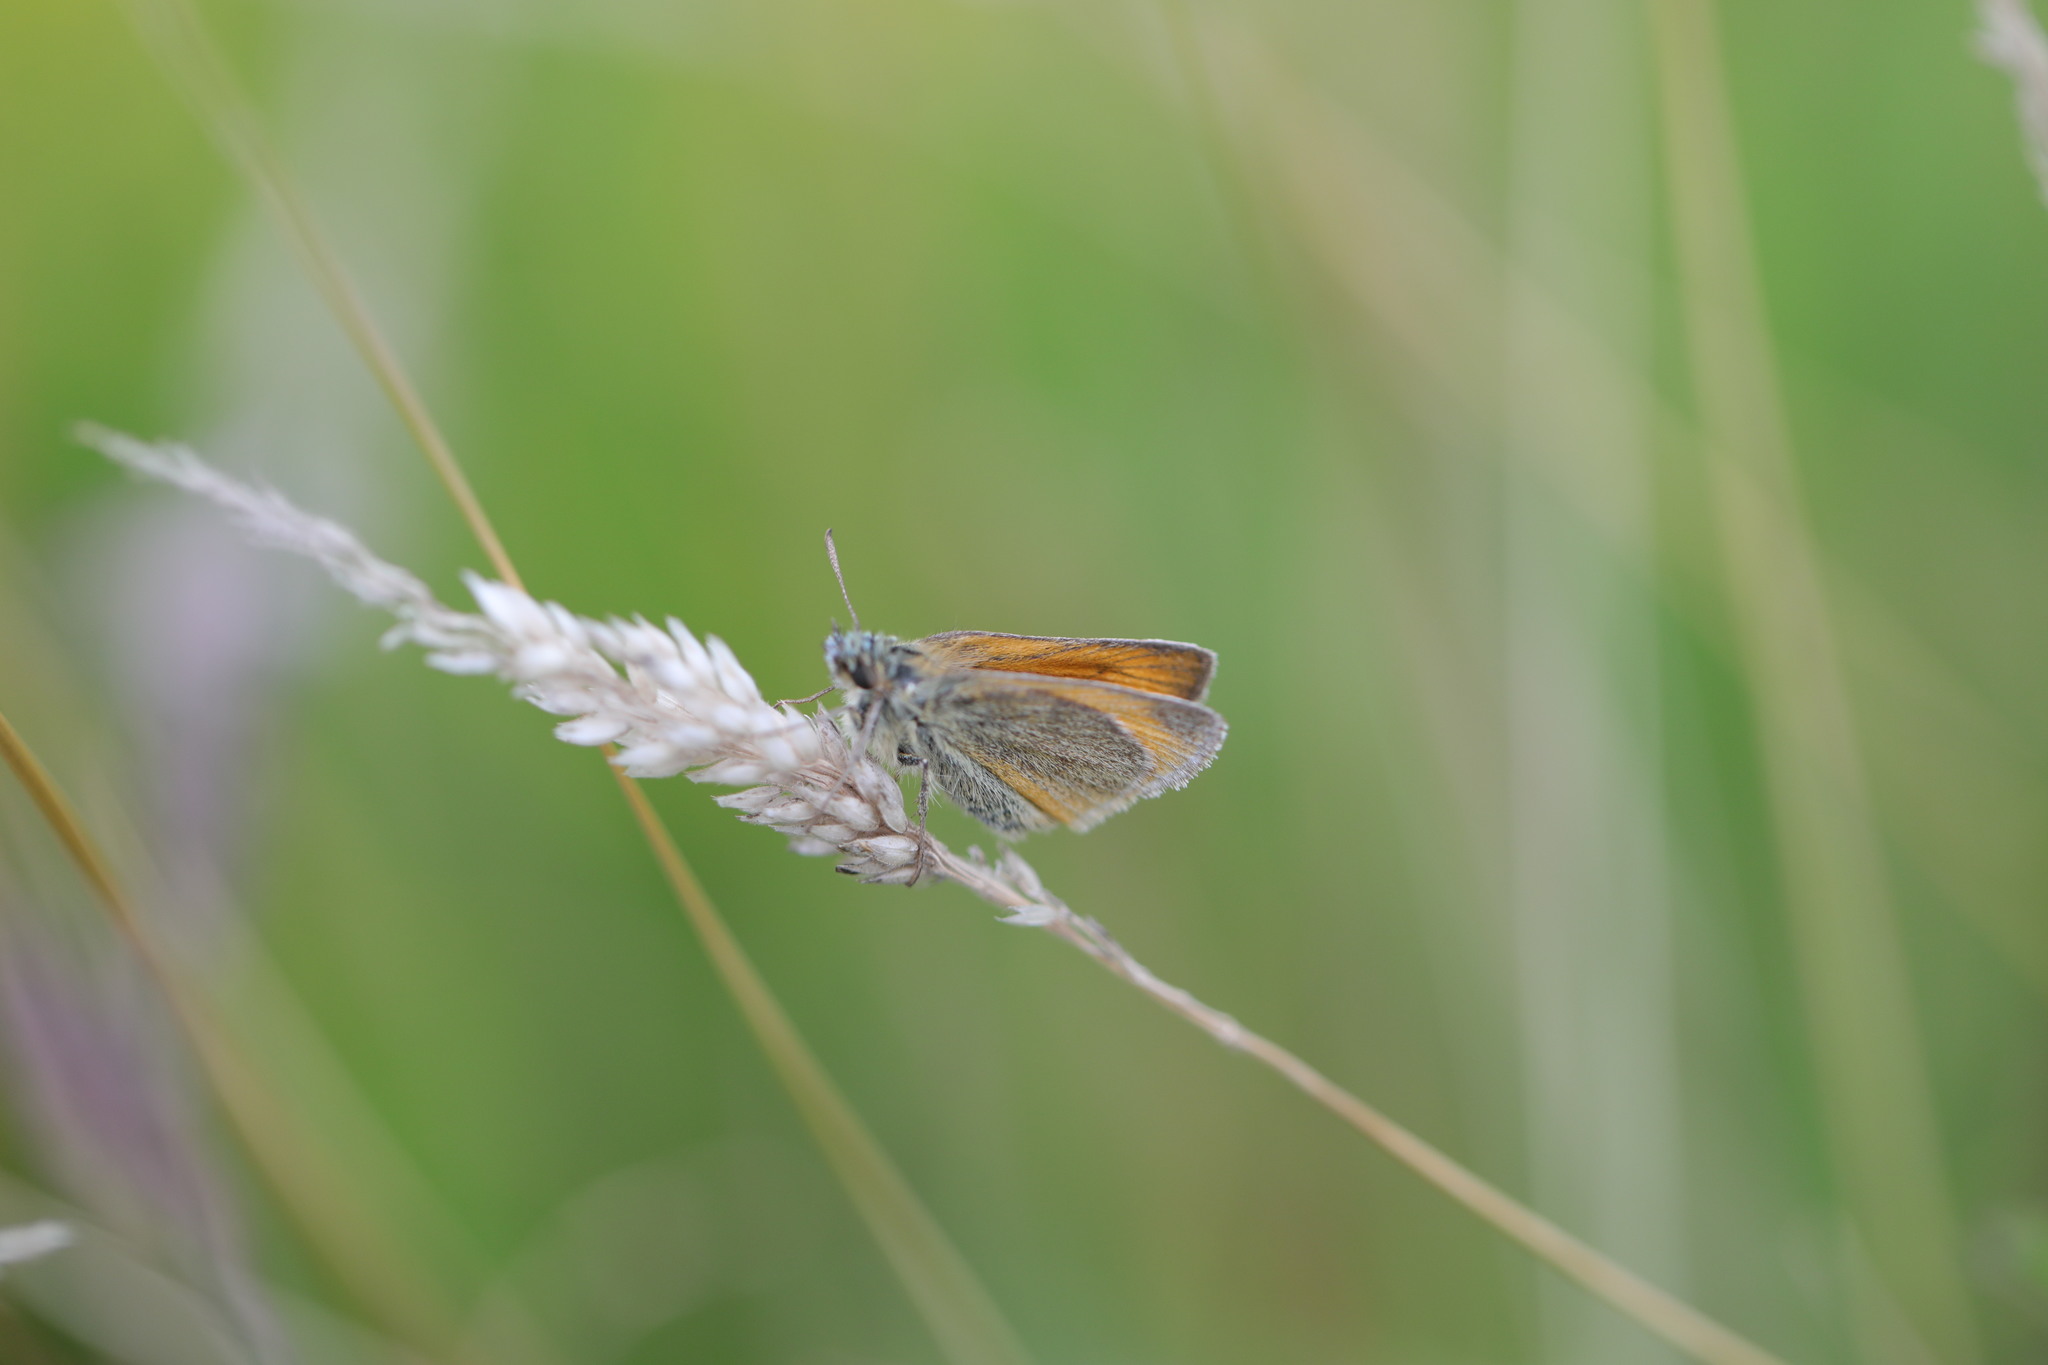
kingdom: Animalia
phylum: Arthropoda
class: Insecta
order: Lepidoptera
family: Hesperiidae
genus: Thymelicus
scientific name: Thymelicus sylvestris
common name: Small skipper
